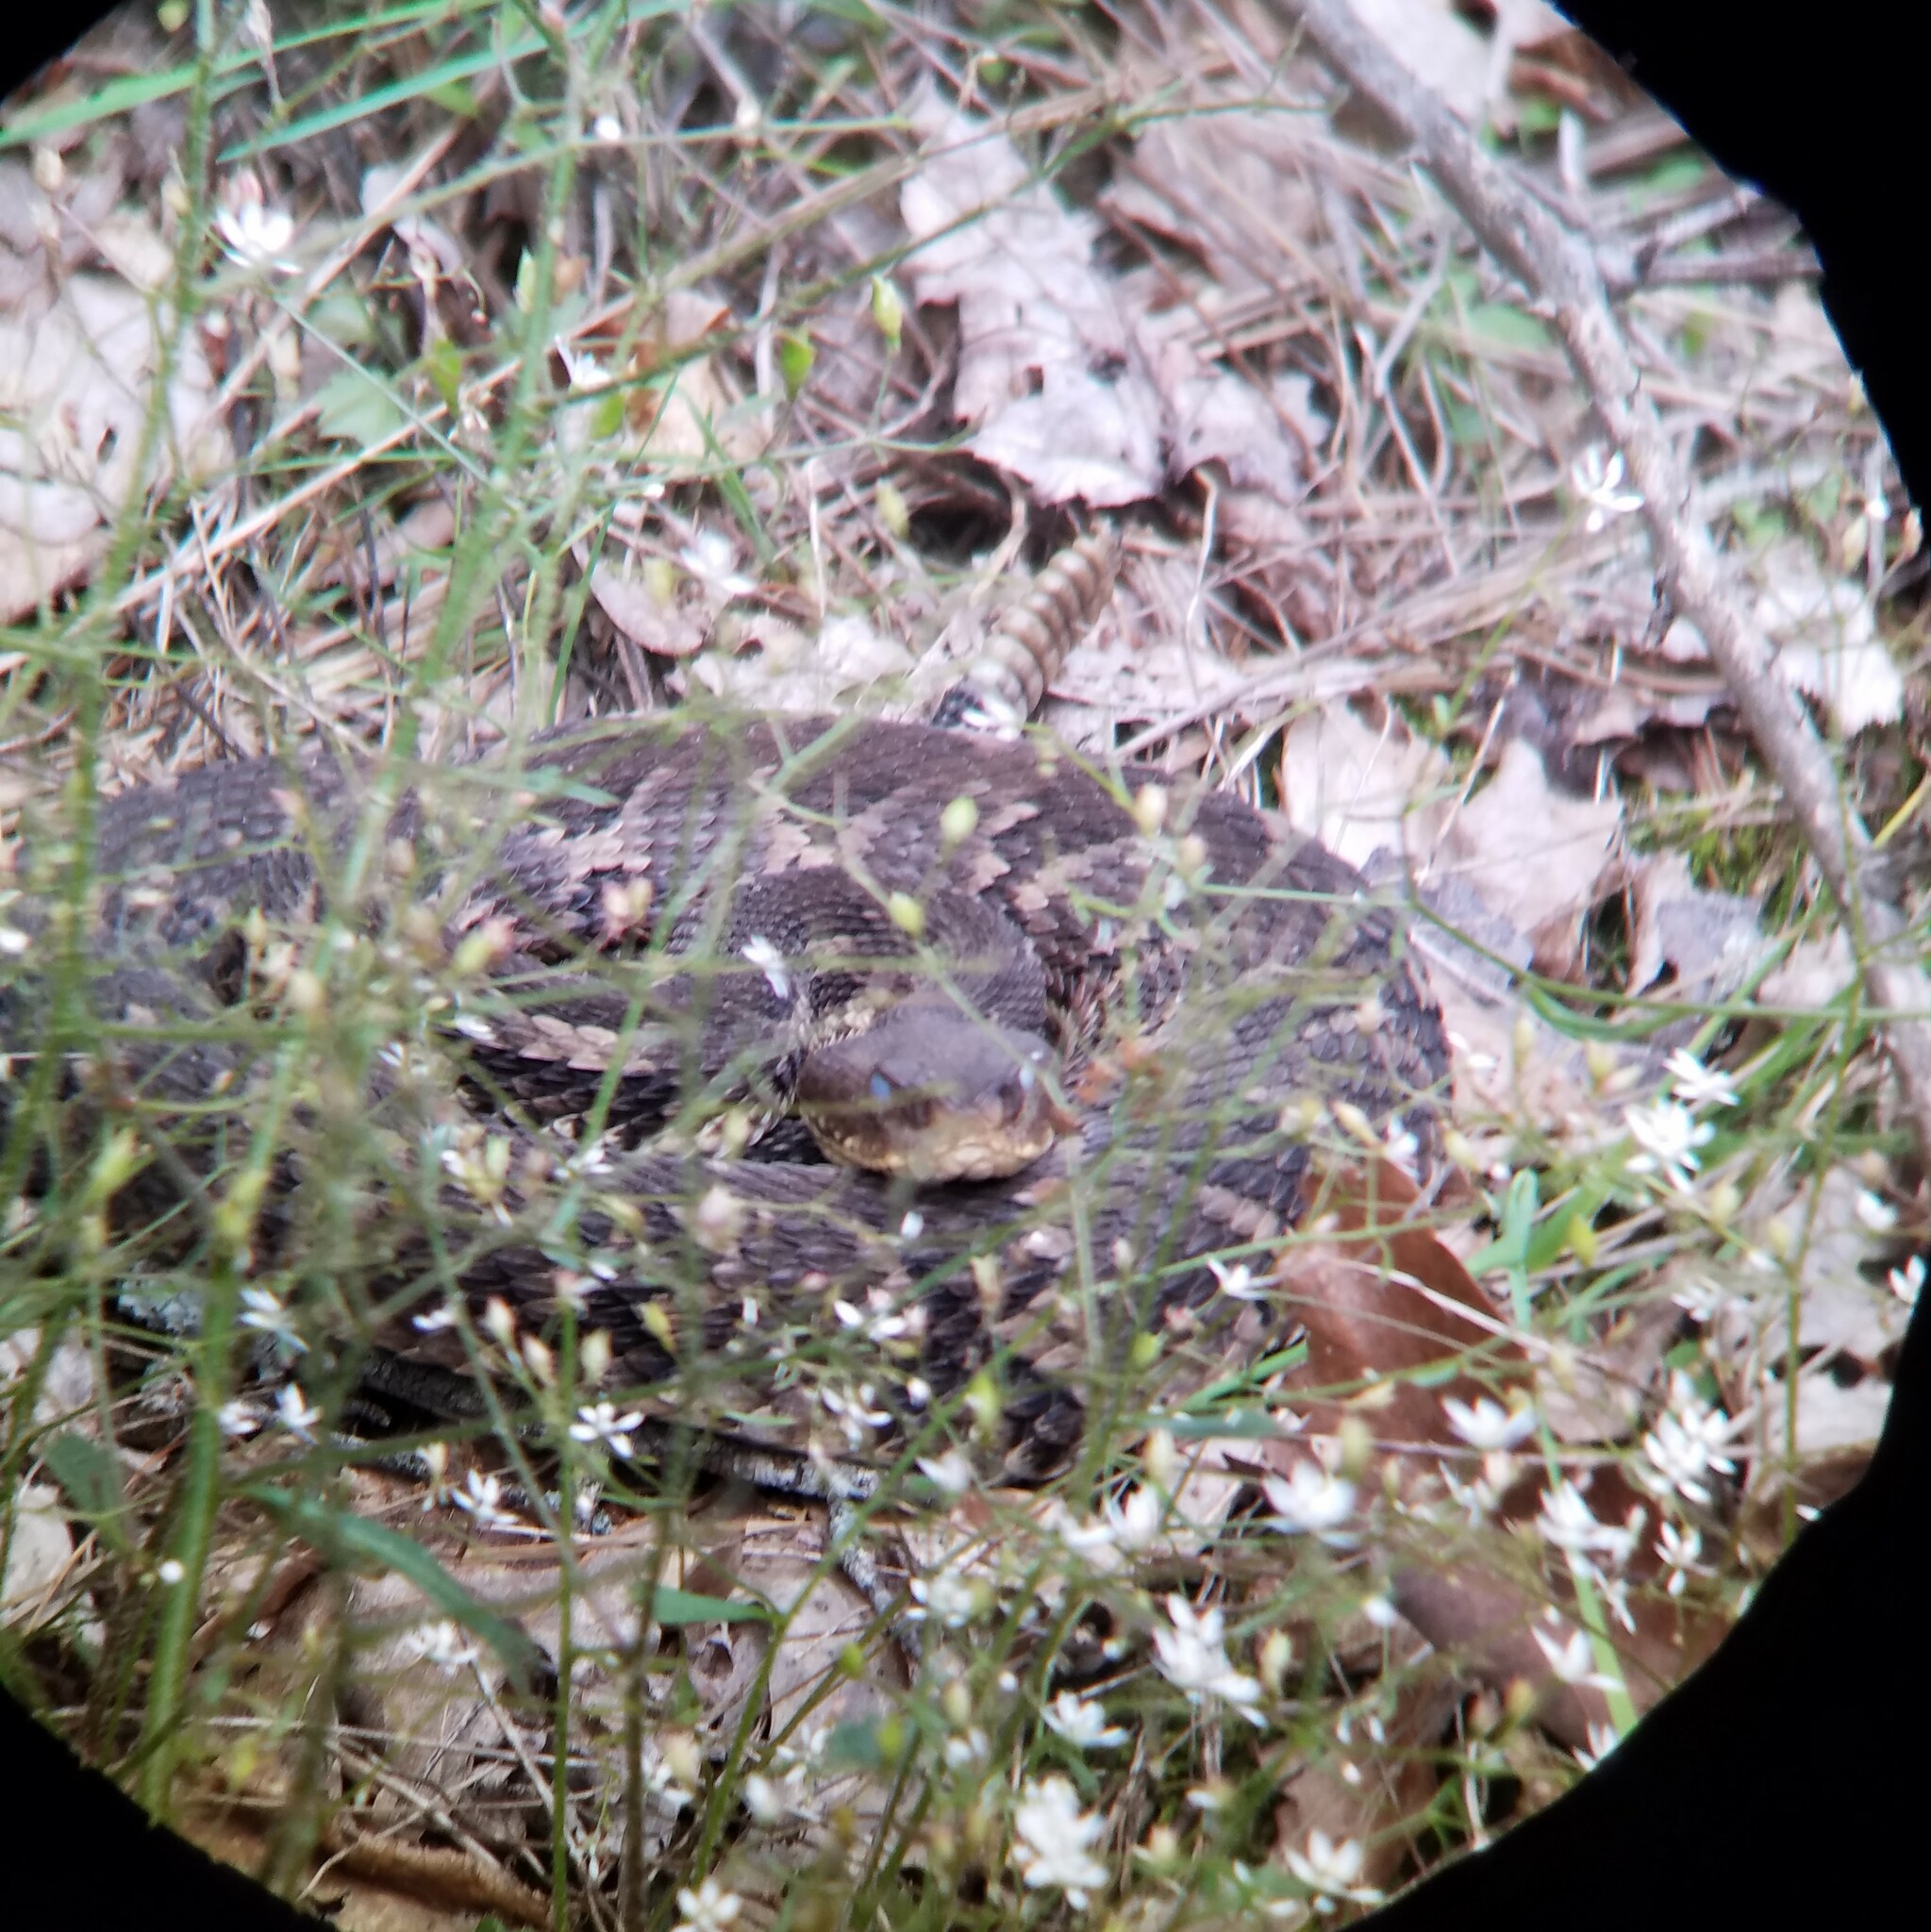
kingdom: Animalia
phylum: Chordata
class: Squamata
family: Viperidae
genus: Crotalus
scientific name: Crotalus horridus
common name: Timber rattlesnake
